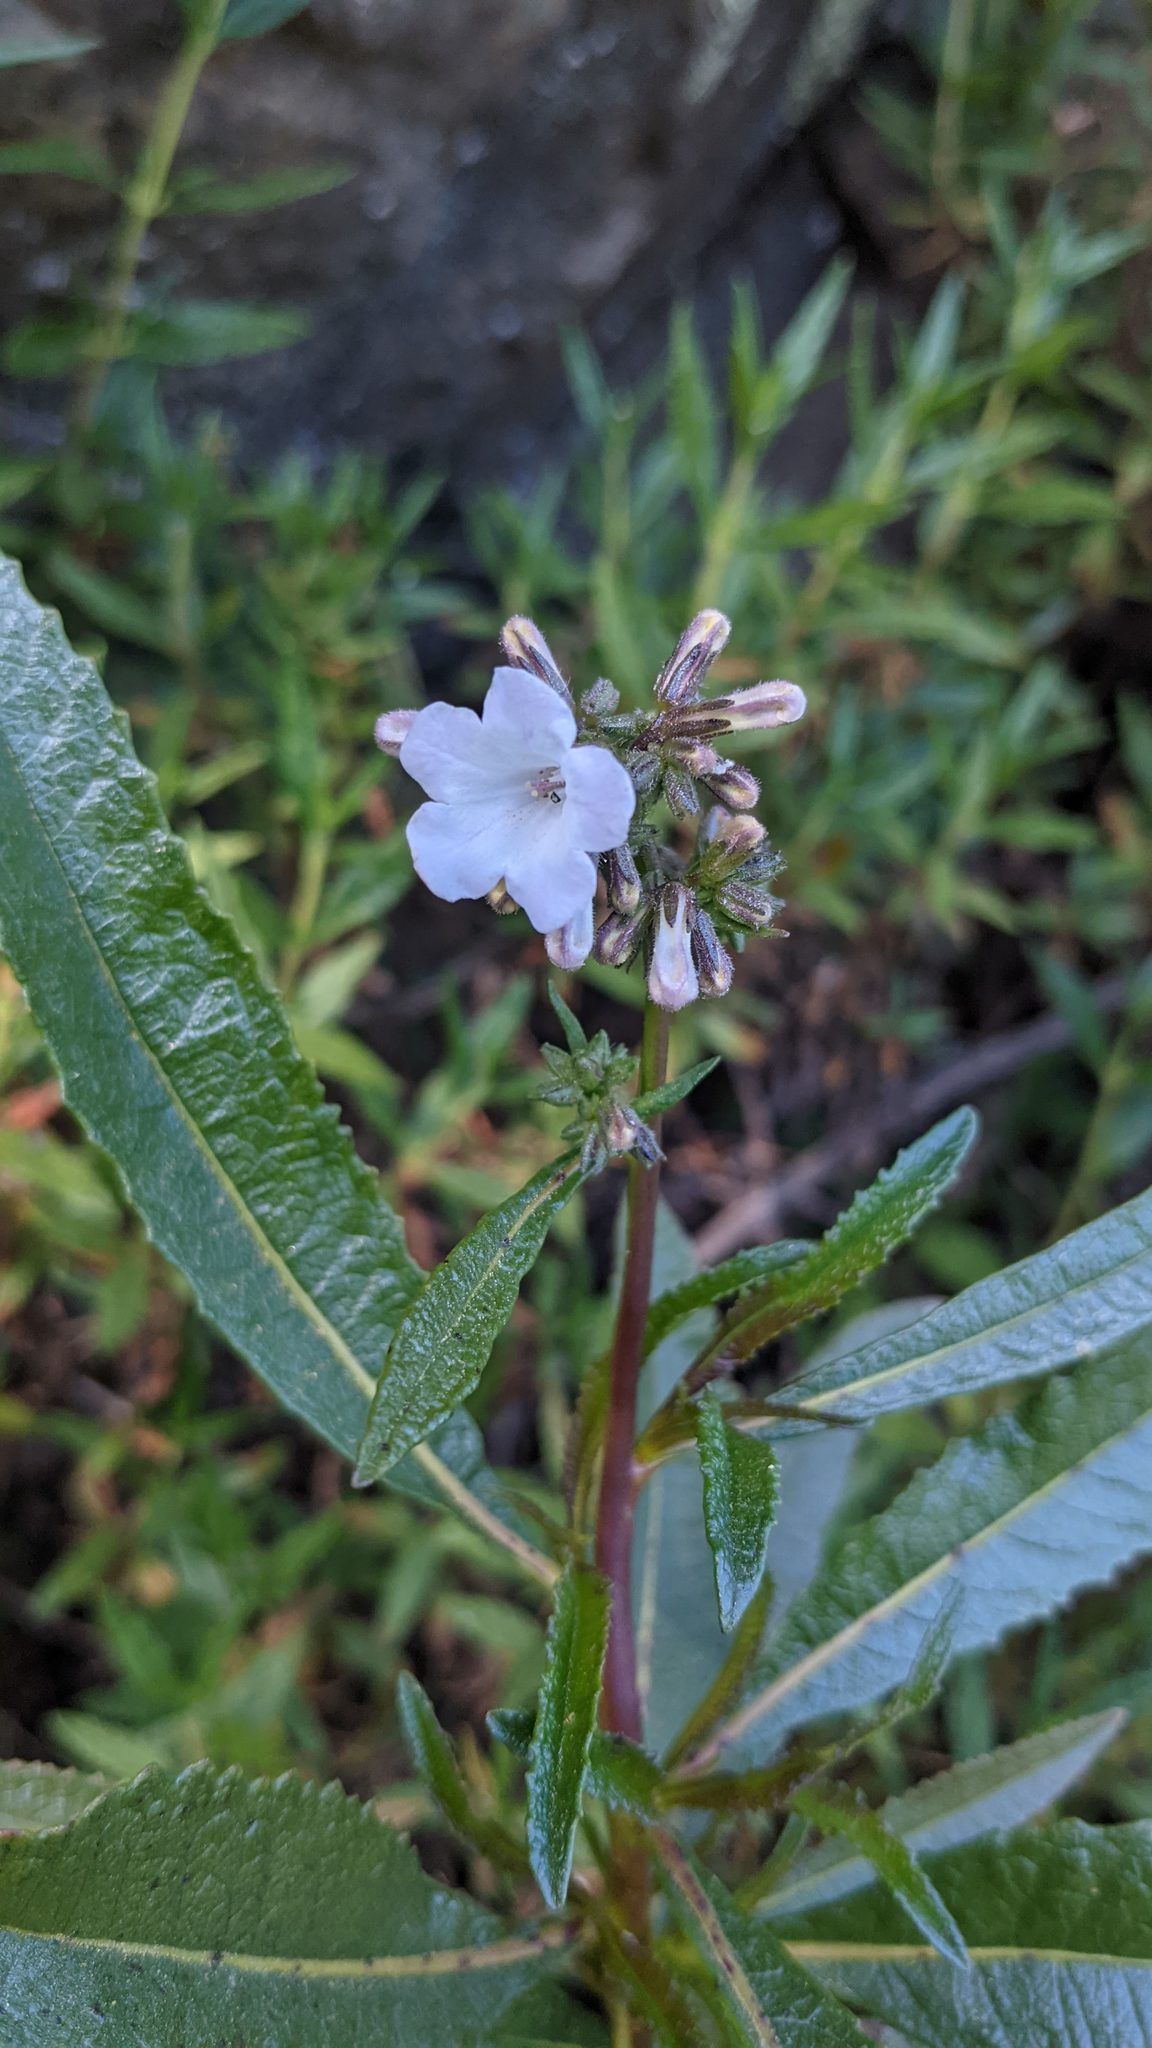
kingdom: Plantae
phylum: Tracheophyta
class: Magnoliopsida
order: Boraginales
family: Namaceae
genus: Eriodictyon
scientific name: Eriodictyon californicum
